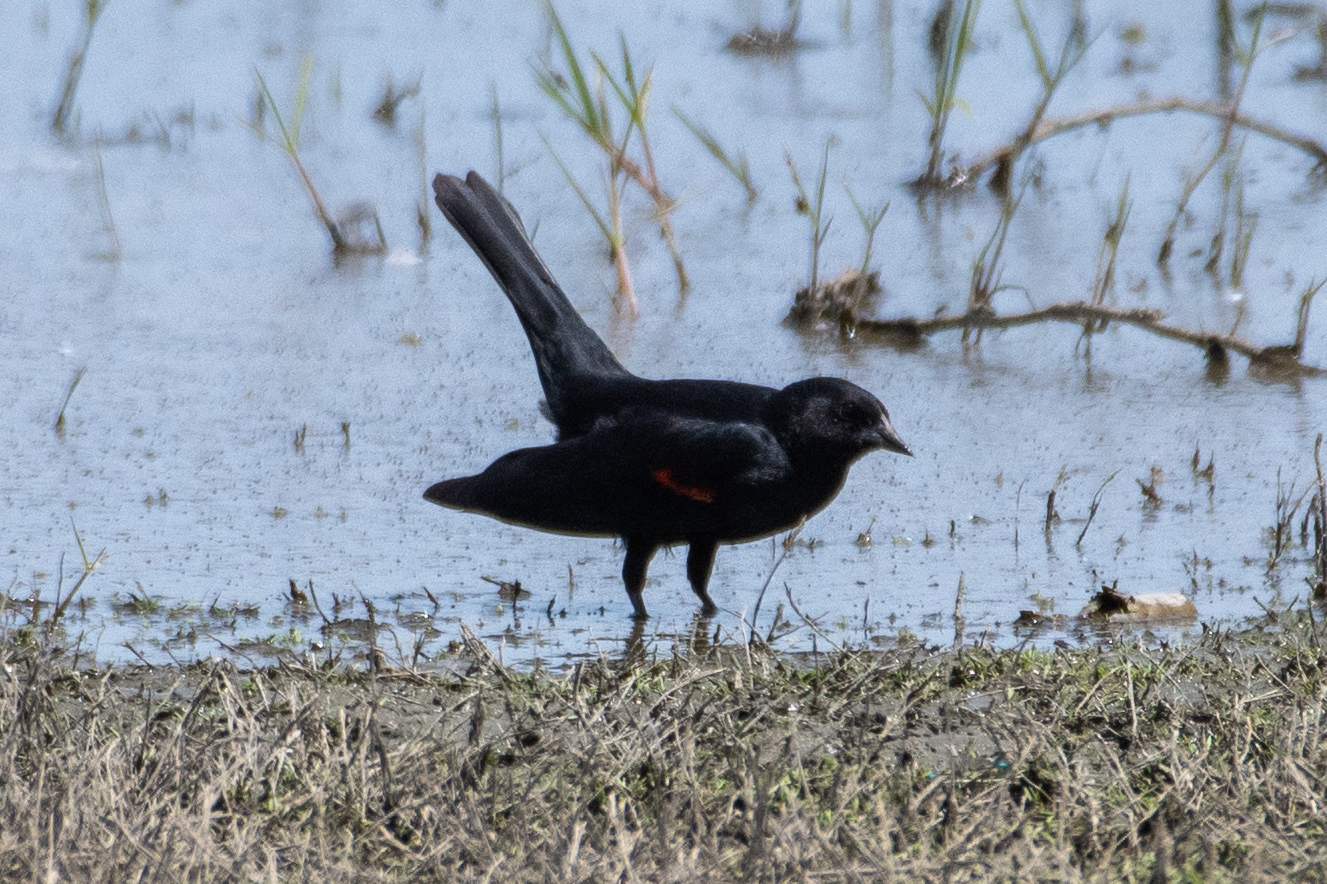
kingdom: Animalia
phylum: Chordata
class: Aves
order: Passeriformes
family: Icteridae
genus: Agelaius
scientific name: Agelaius phoeniceus
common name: Red-winged blackbird
